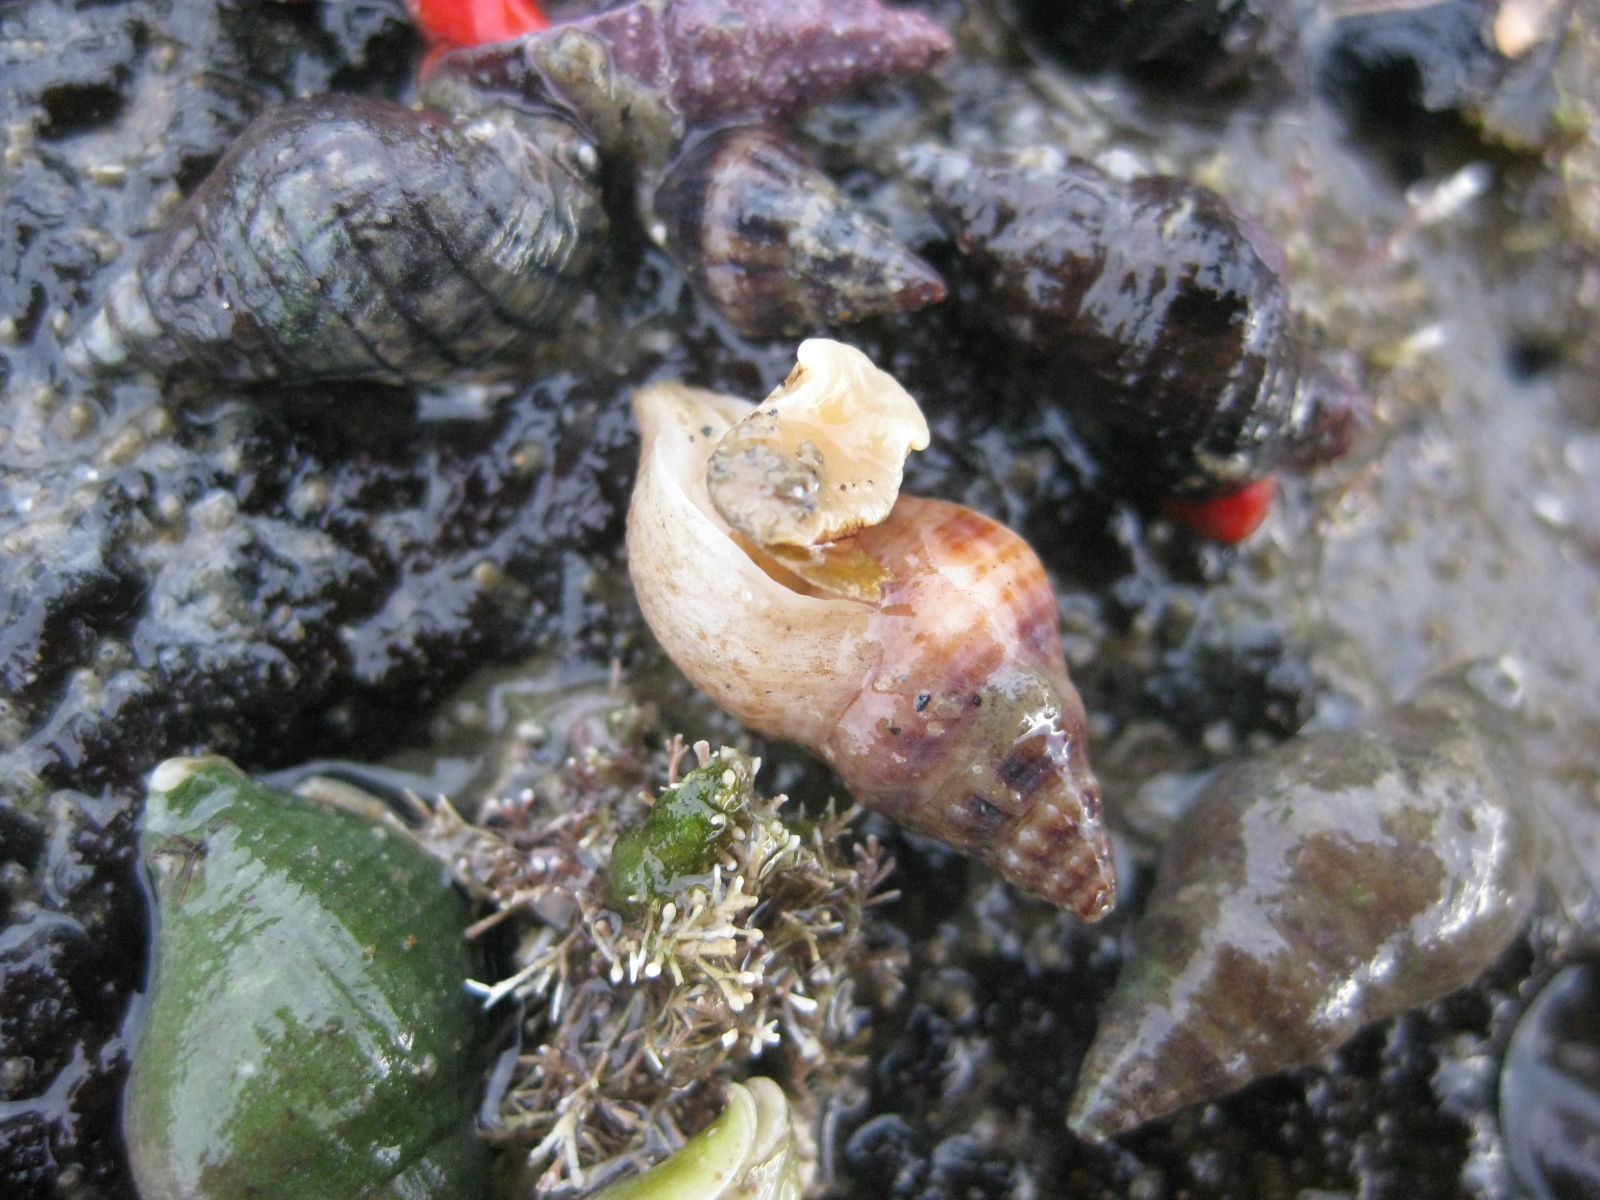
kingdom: Animalia
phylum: Mollusca
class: Gastropoda
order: Neogastropoda
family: Tudiclidae
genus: Buccinulum
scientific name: Buccinulum vittatum
